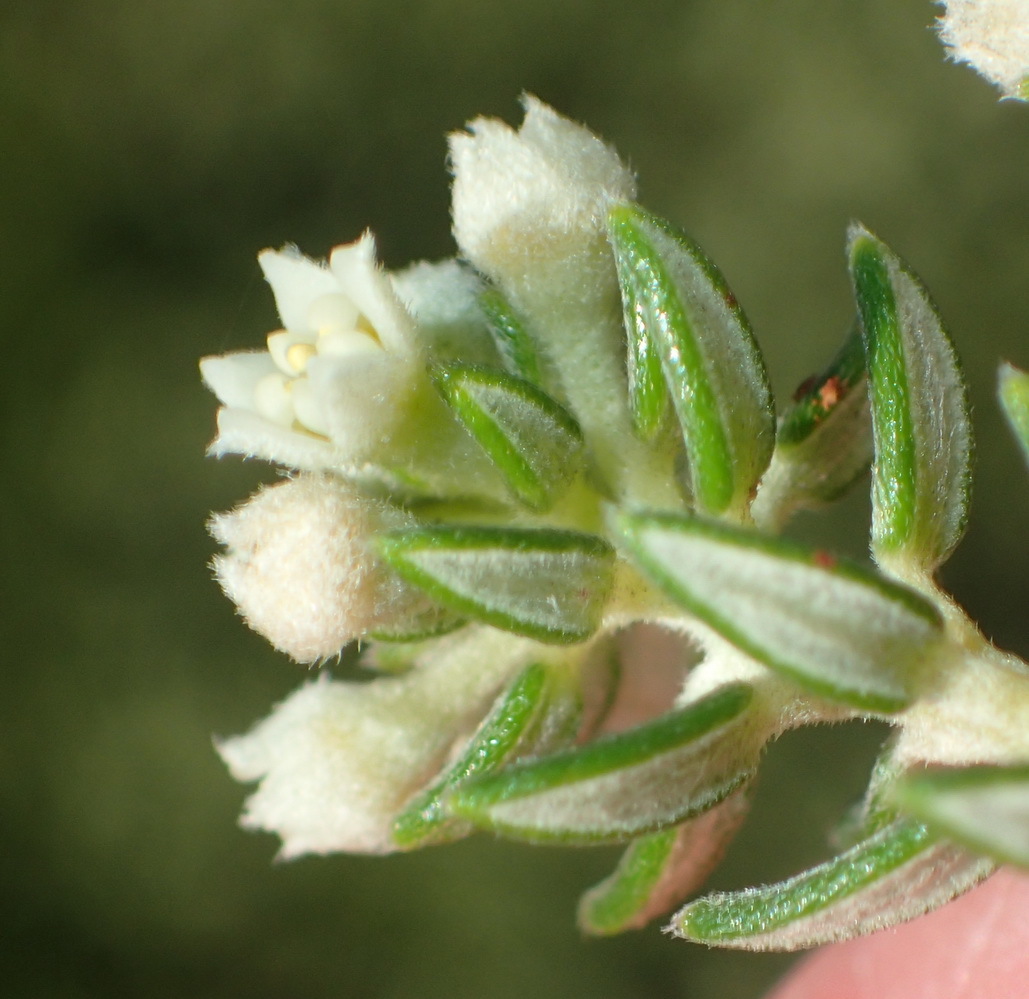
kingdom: Plantae
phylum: Tracheophyta
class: Magnoliopsida
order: Rosales
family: Rhamnaceae
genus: Phylica
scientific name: Phylica axillaris
